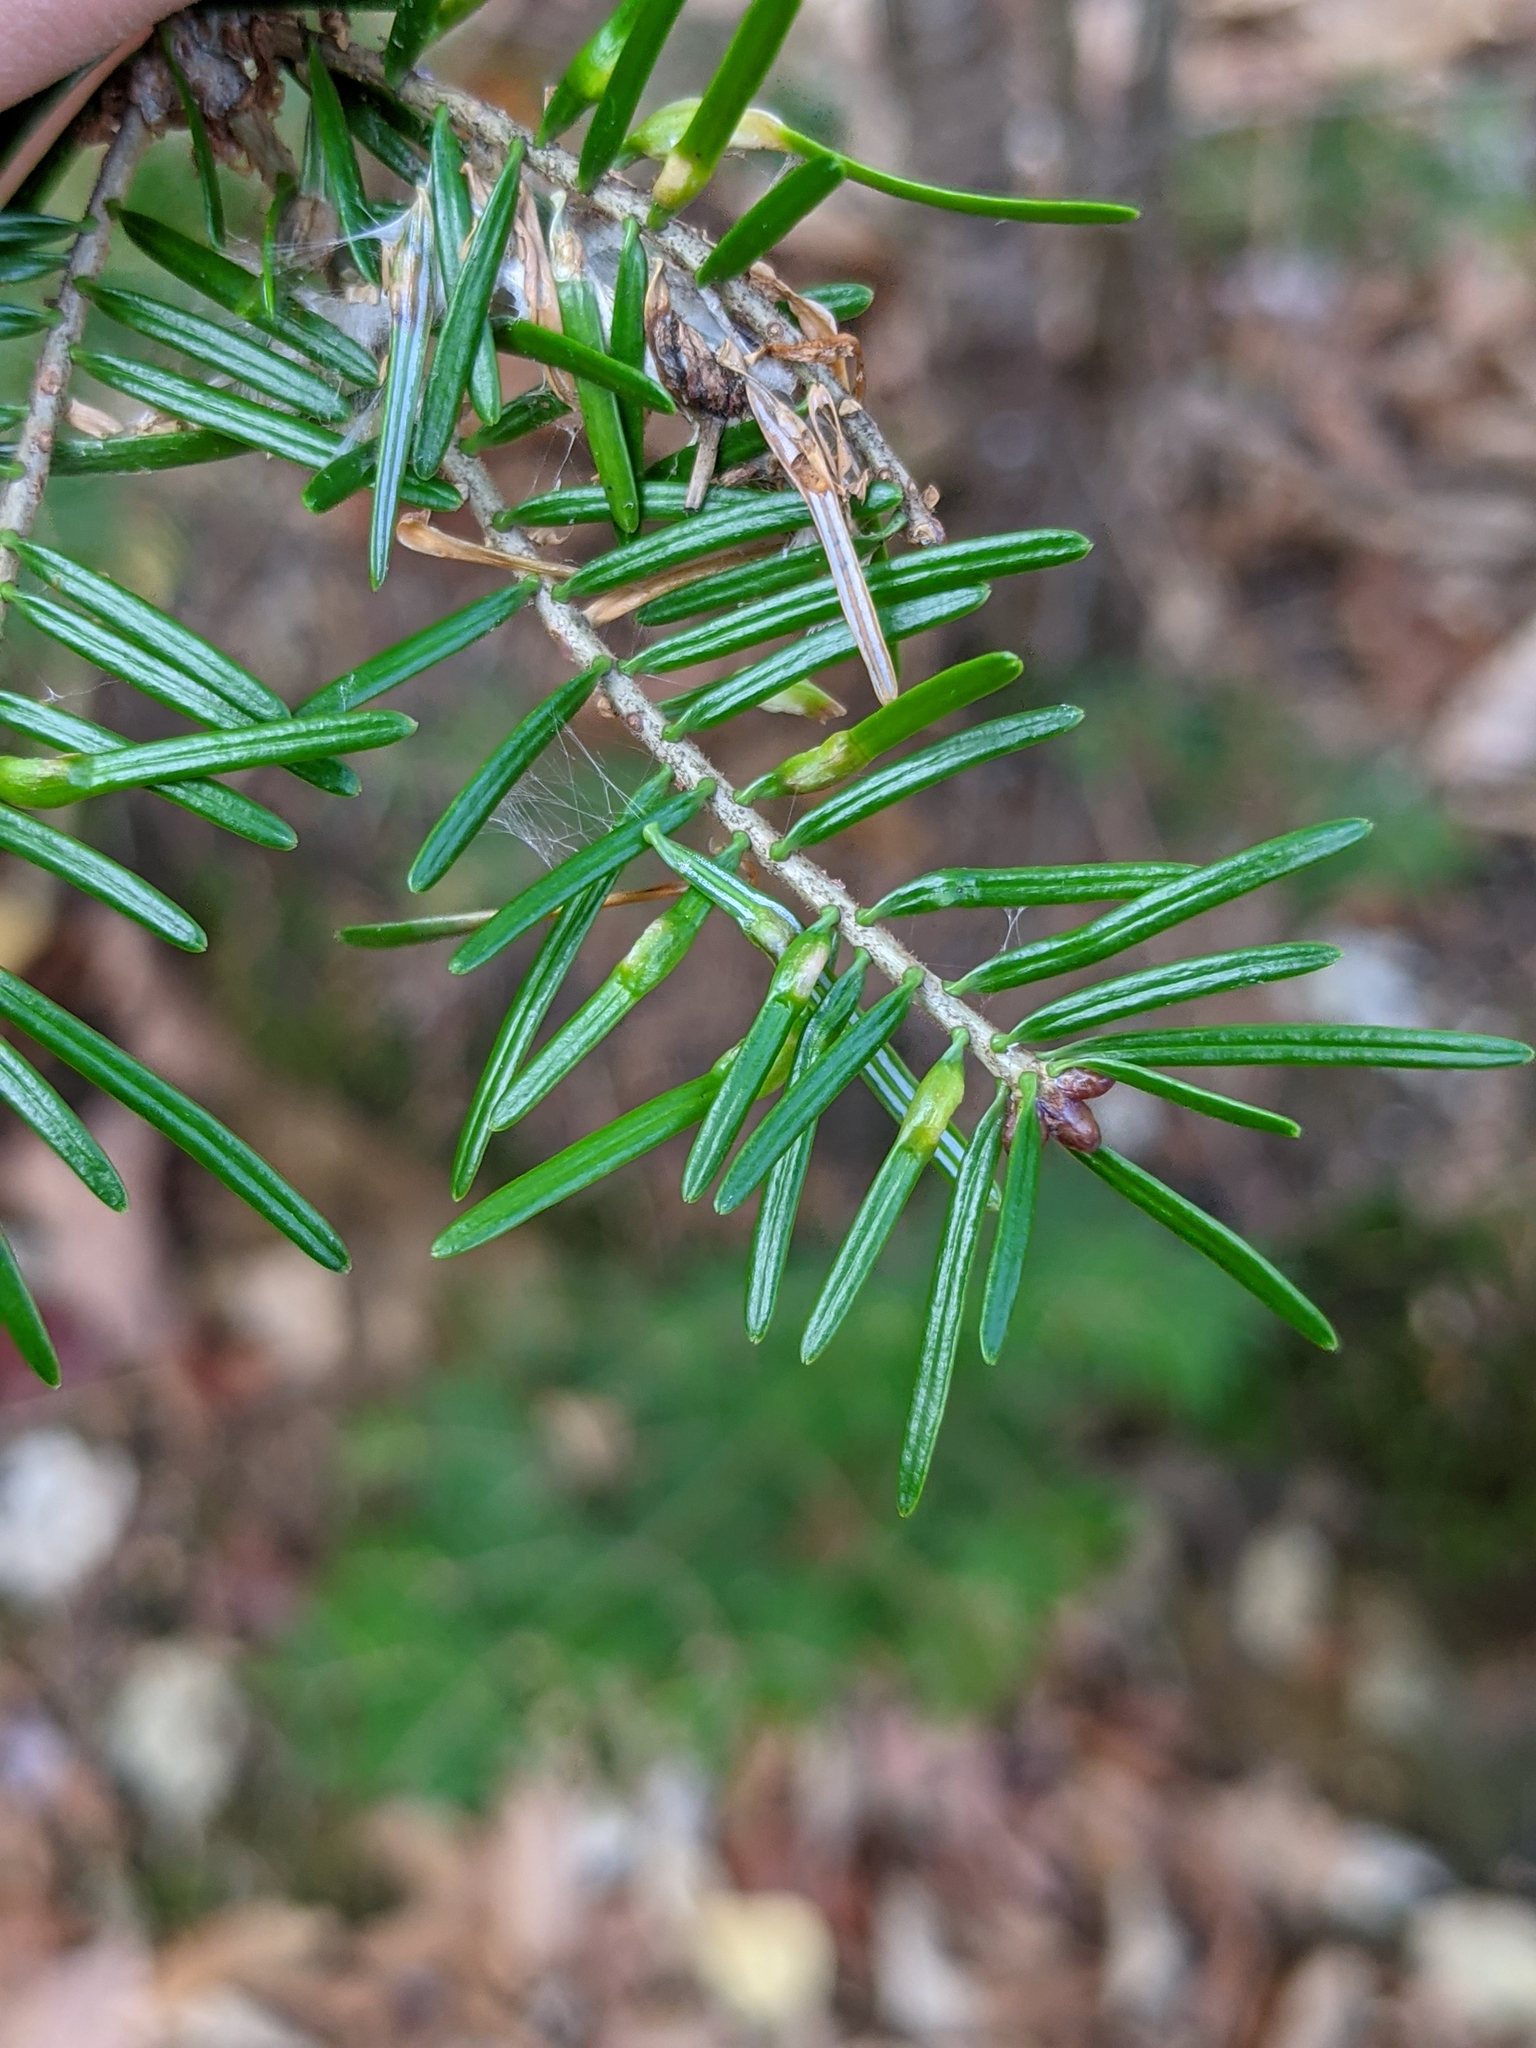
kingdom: Animalia
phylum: Arthropoda
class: Insecta
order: Diptera
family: Cecidomyiidae
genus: Paradiplosis
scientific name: Paradiplosis tumifex
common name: Gall midge
